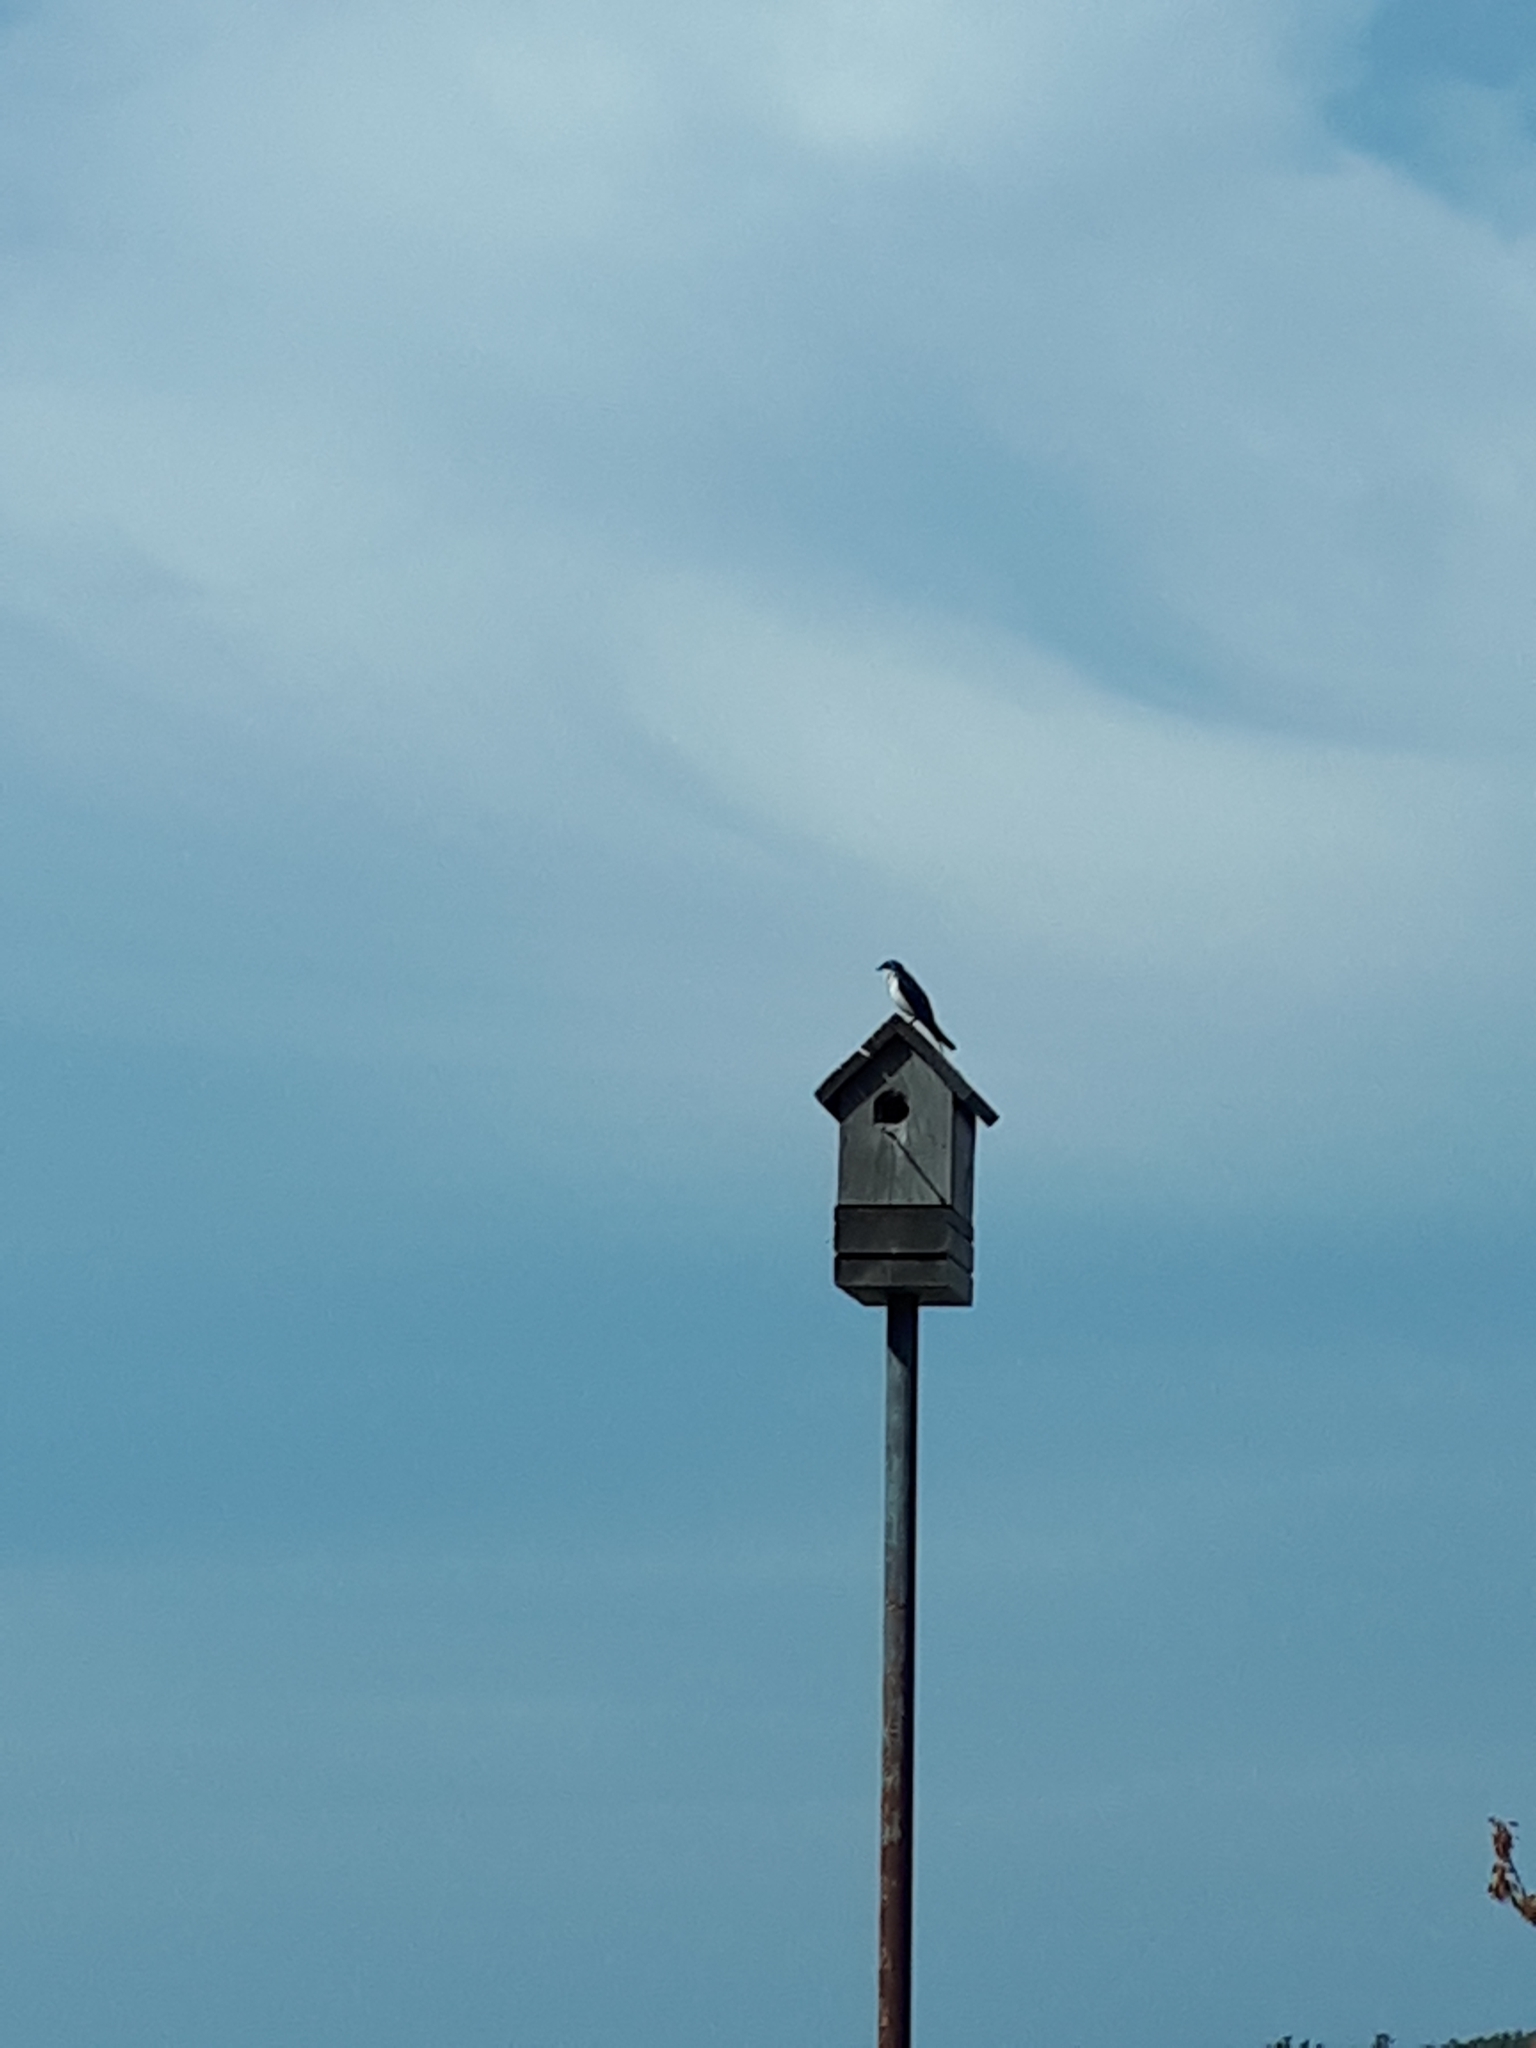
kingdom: Animalia
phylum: Chordata
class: Aves
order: Passeriformes
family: Hirundinidae
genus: Tachycineta
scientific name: Tachycineta bicolor
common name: Tree swallow
